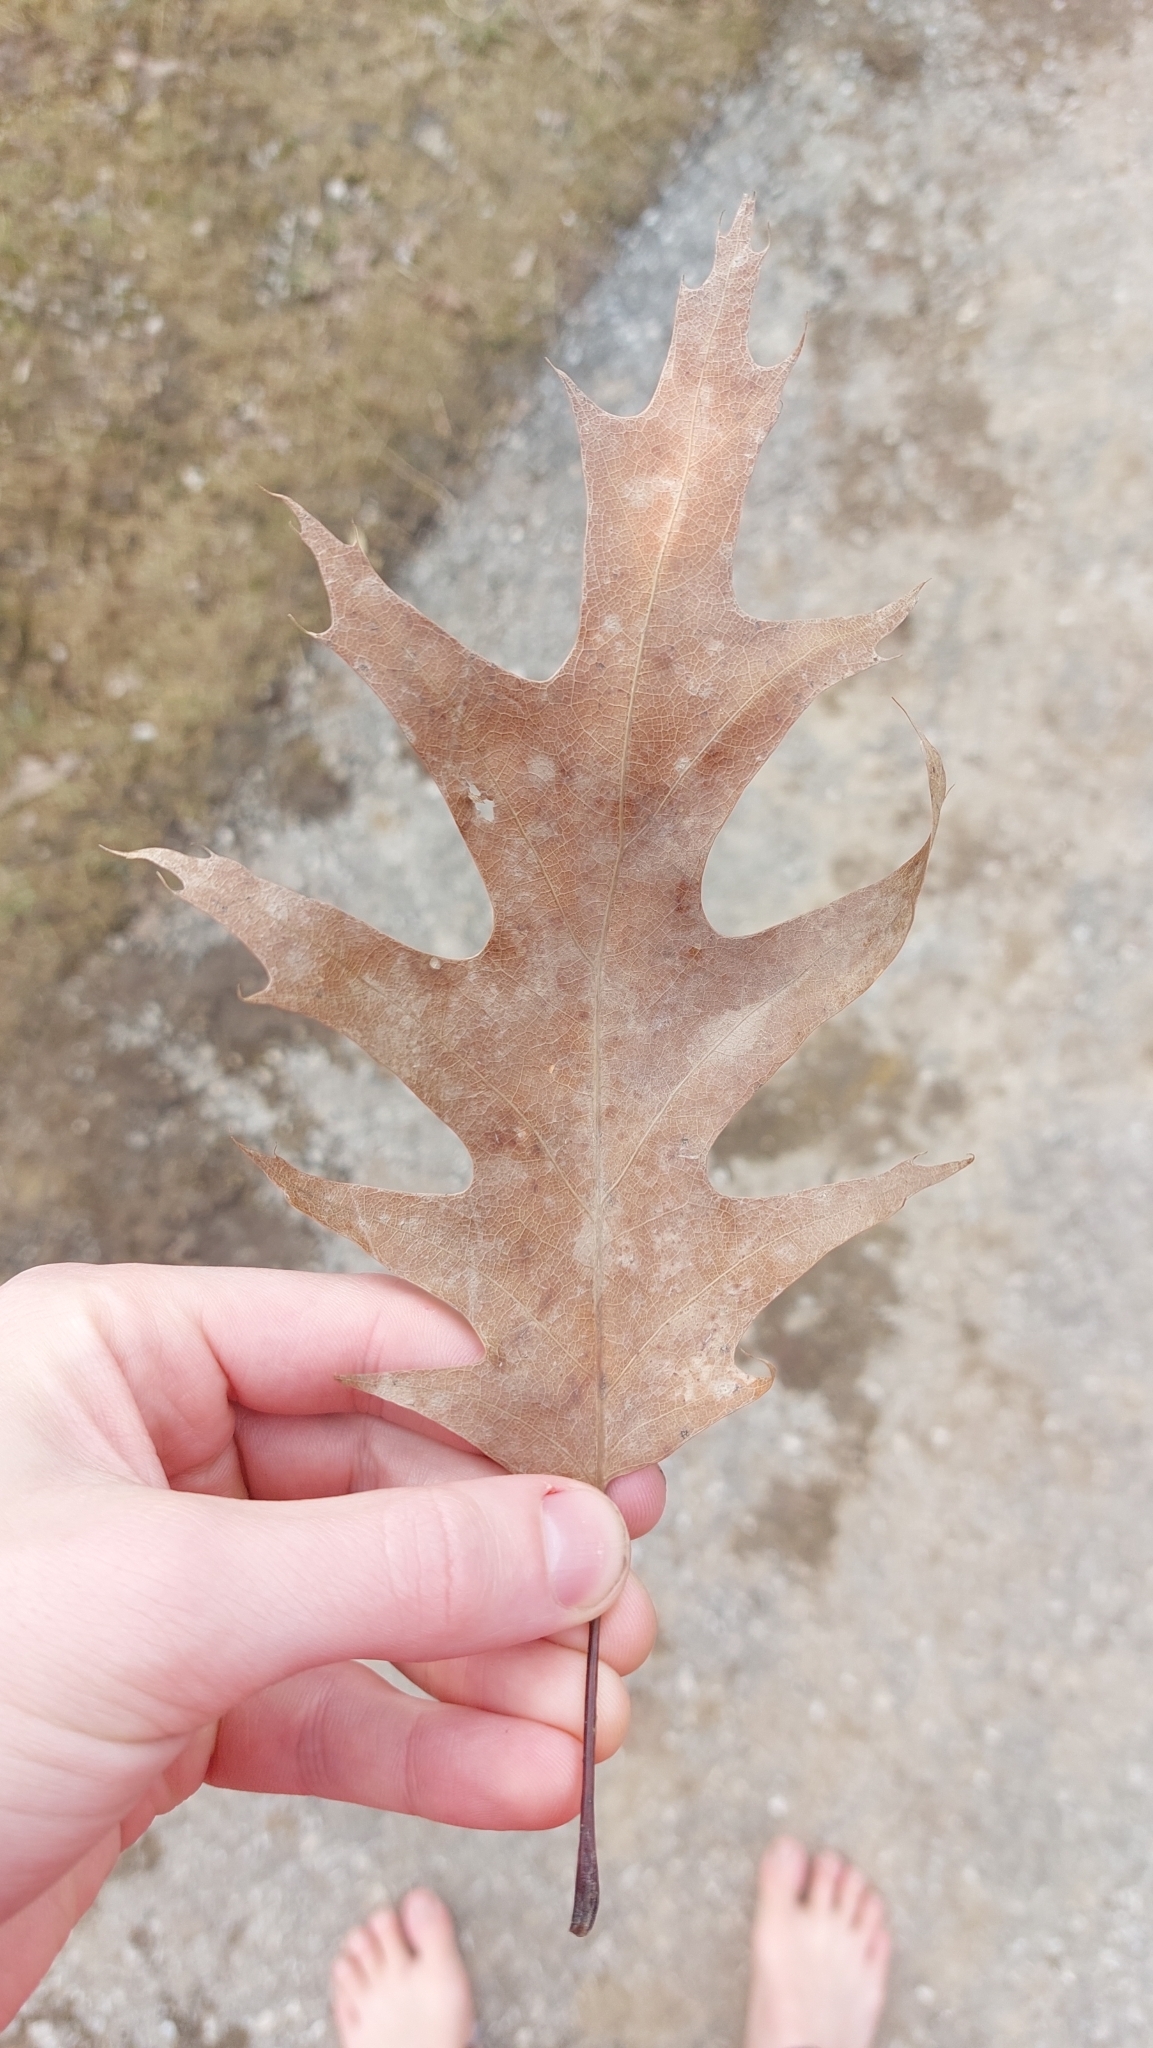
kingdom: Plantae
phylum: Tracheophyta
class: Magnoliopsida
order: Fagales
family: Fagaceae
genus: Quercus
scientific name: Quercus rubra
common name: Red oak
